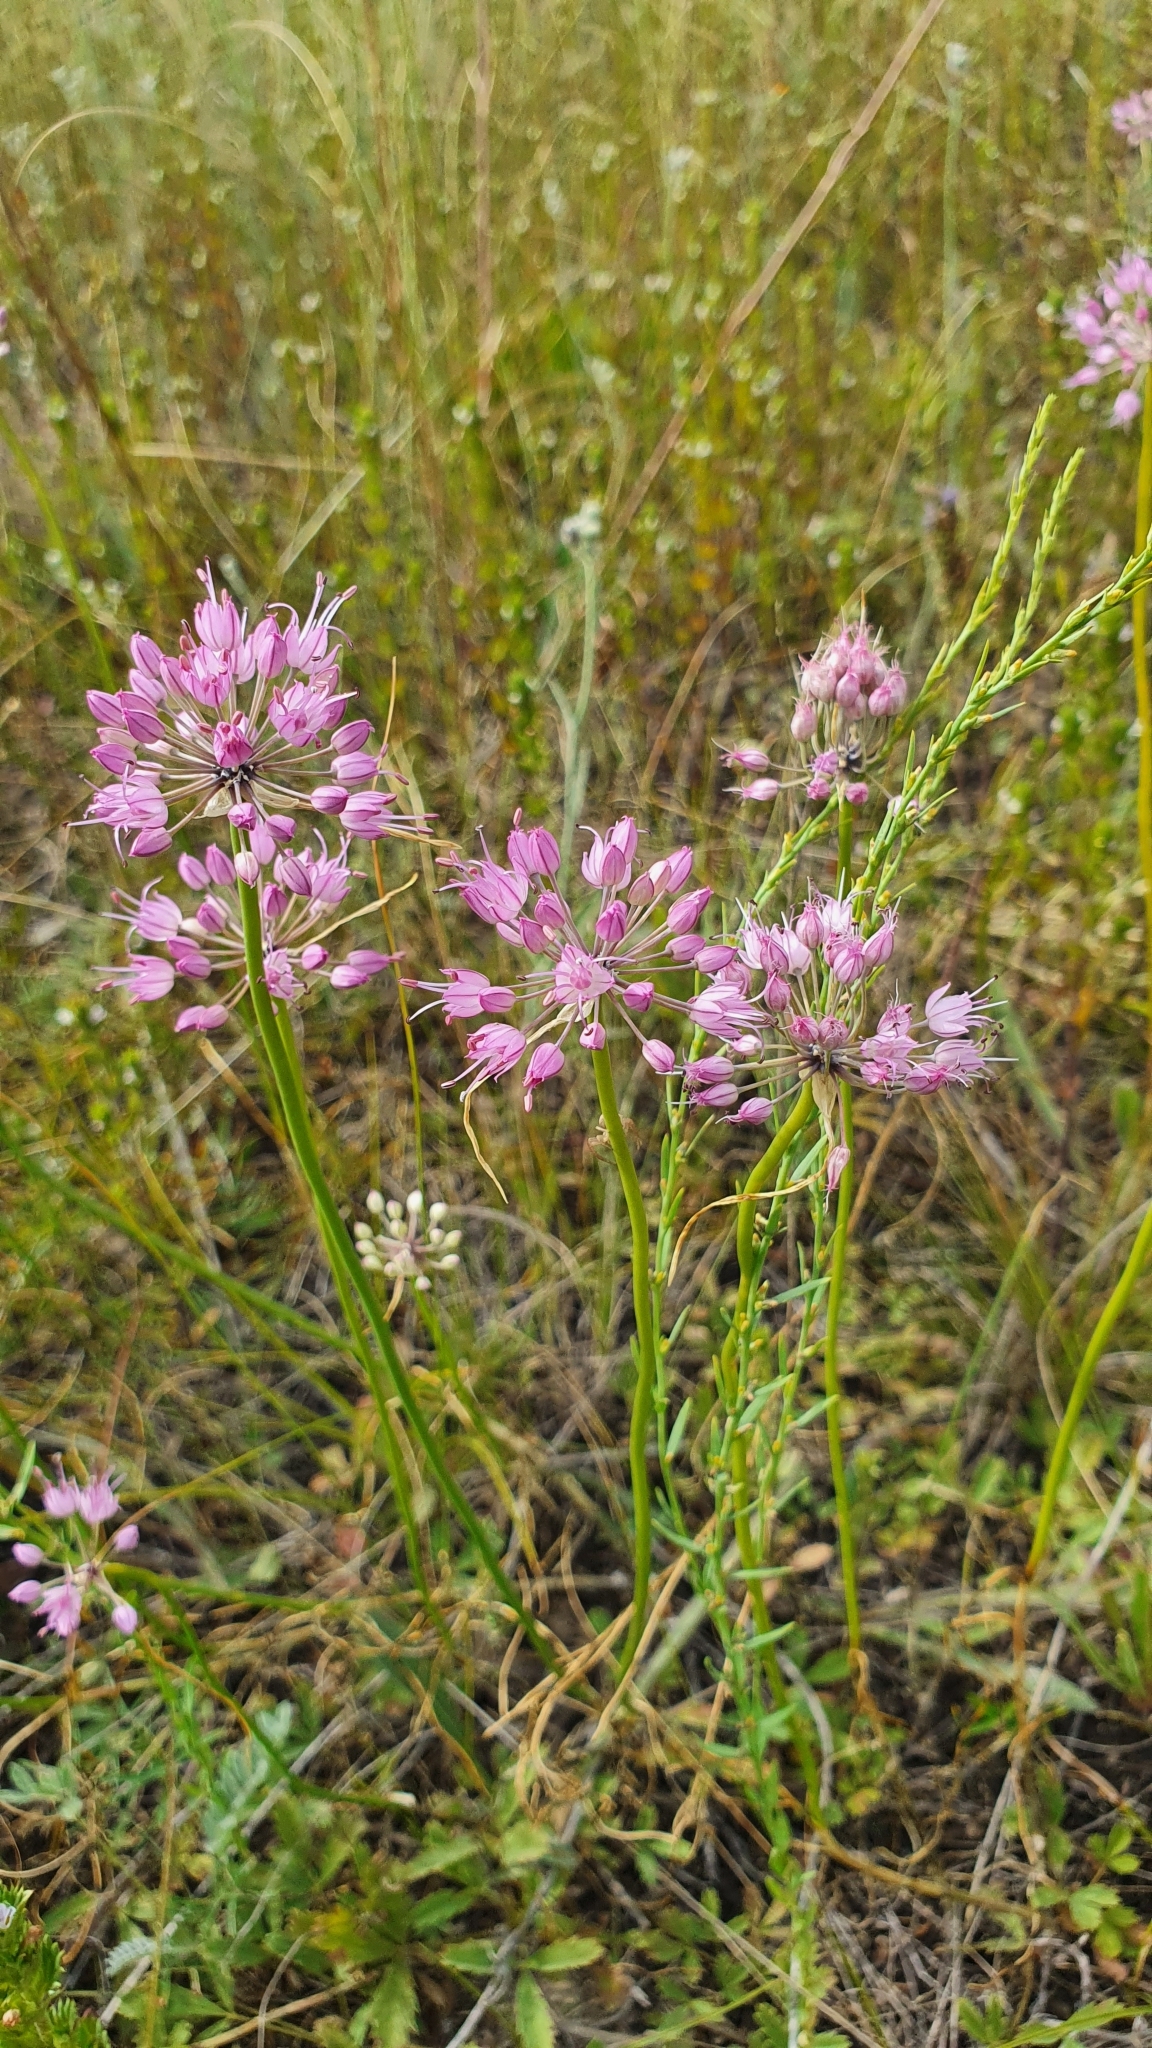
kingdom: Plantae
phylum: Tracheophyta
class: Liliopsida
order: Asparagales
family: Amaryllidaceae
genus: Allium
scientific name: Allium cretaceum
